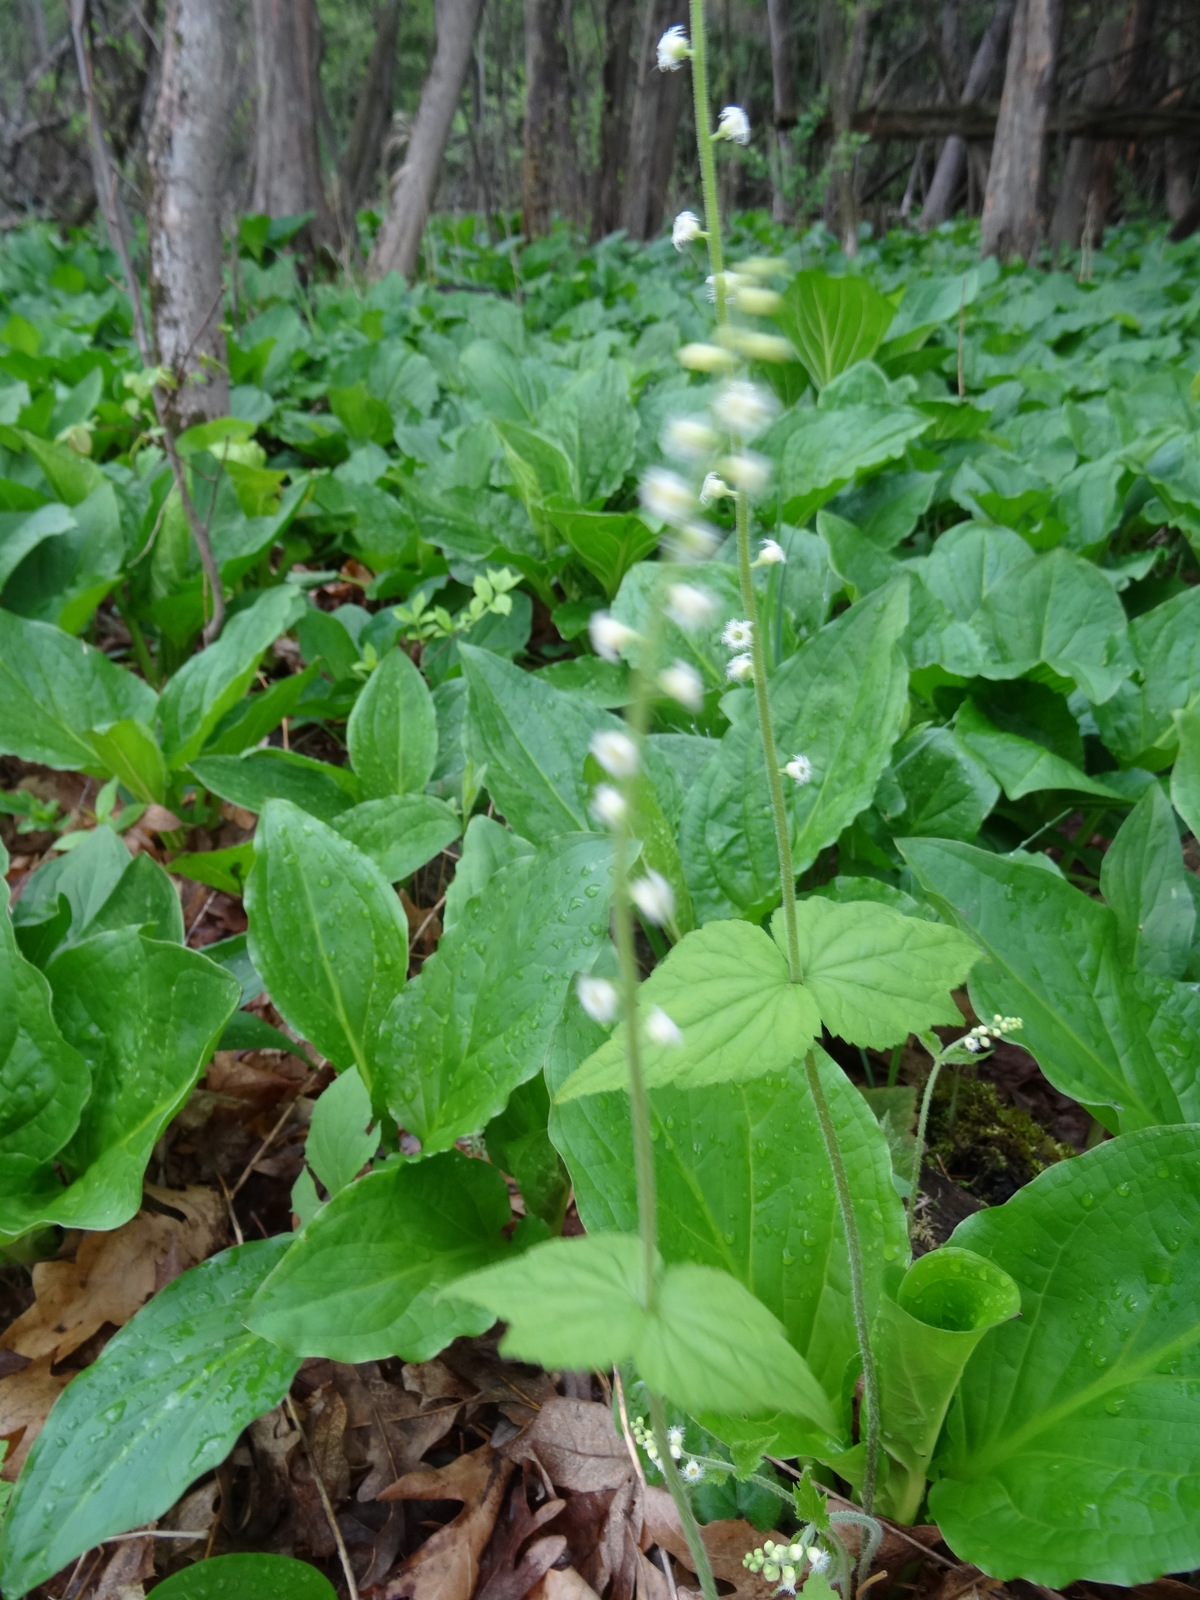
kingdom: Plantae
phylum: Tracheophyta
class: Magnoliopsida
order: Saxifragales
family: Saxifragaceae
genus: Mitella
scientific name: Mitella diphylla
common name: Coolwort
